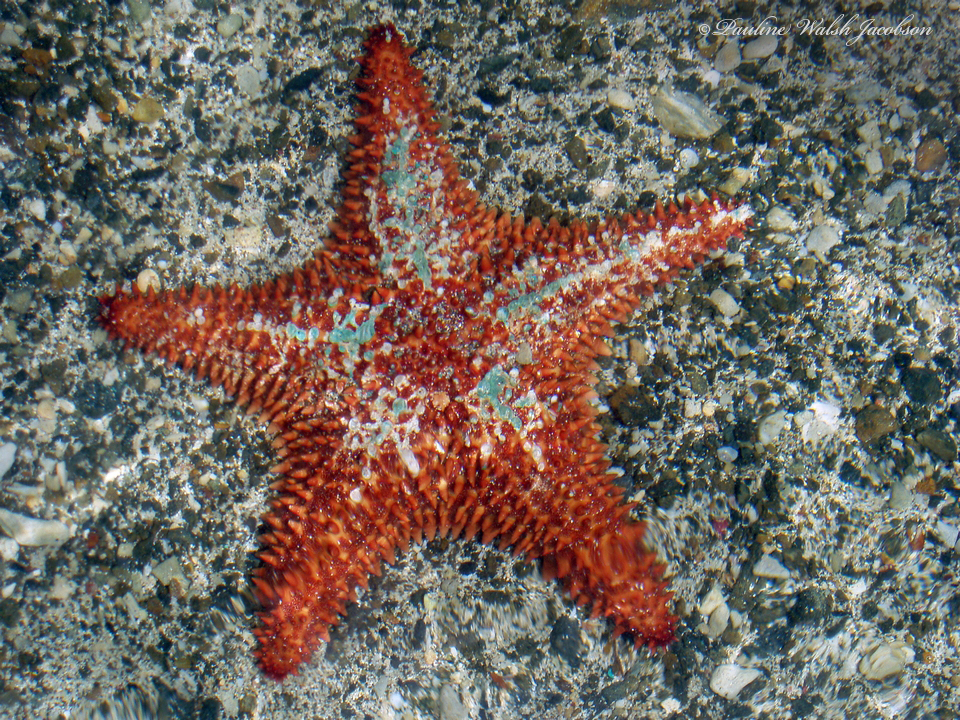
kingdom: Animalia
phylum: Echinodermata
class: Asteroidea
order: Valvatida
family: Oreasteridae
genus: Oreaster
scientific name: Oreaster reticulatus
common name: Cushion sea star
